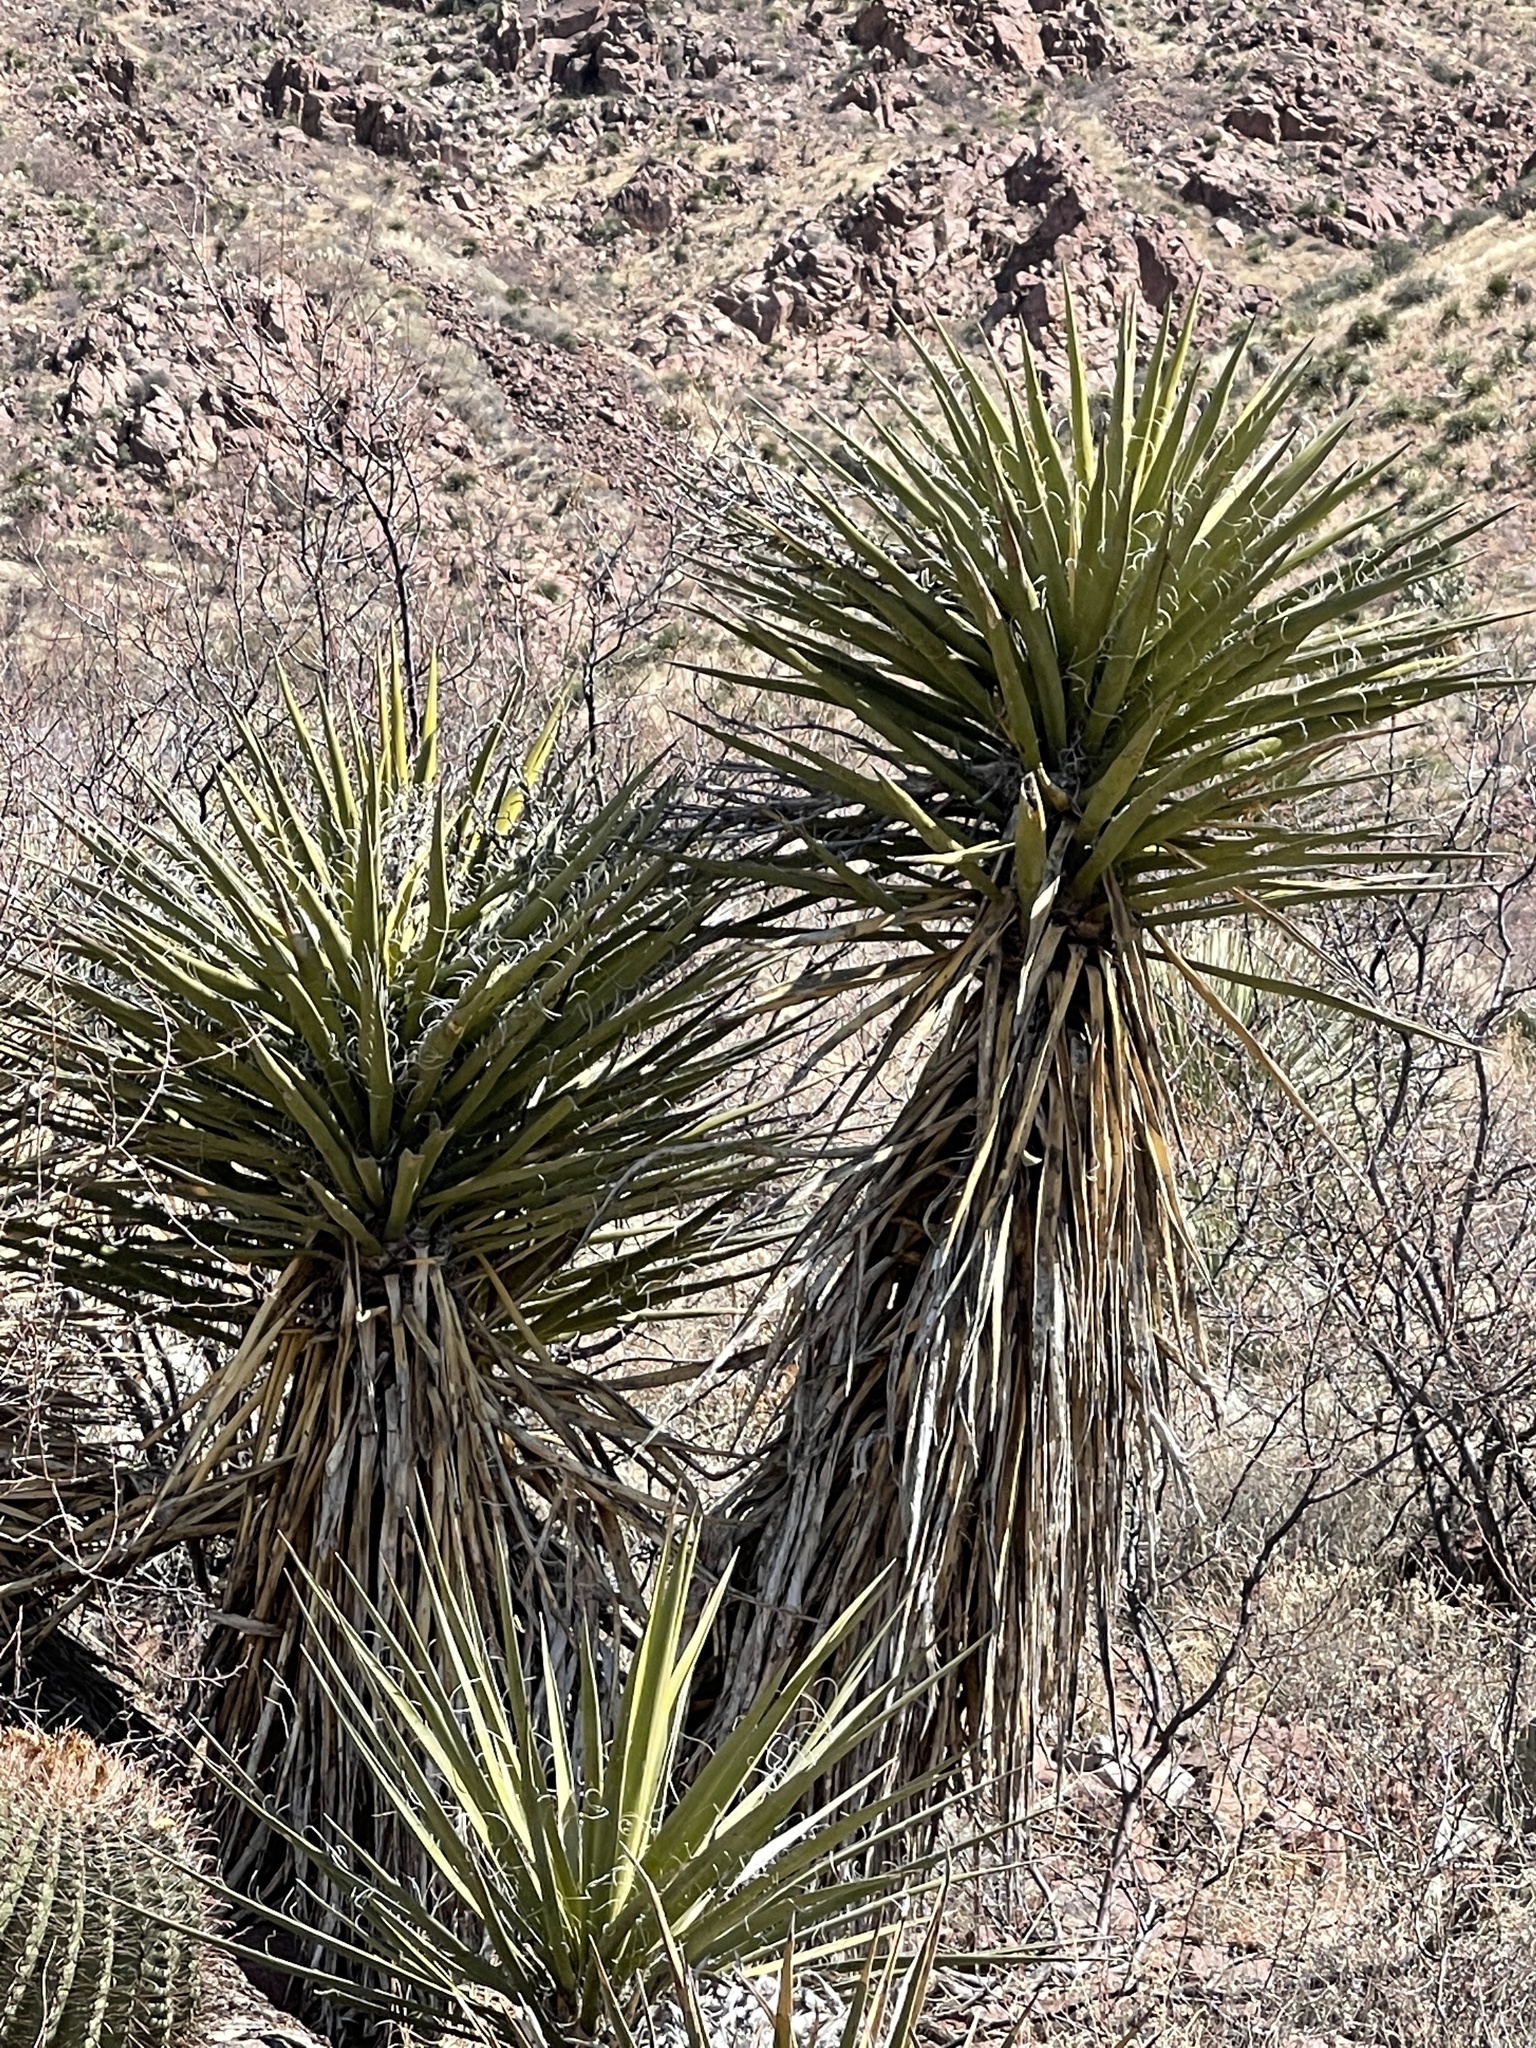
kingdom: Plantae
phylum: Tracheophyta
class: Liliopsida
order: Asparagales
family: Asparagaceae
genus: Yucca
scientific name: Yucca treculiana
